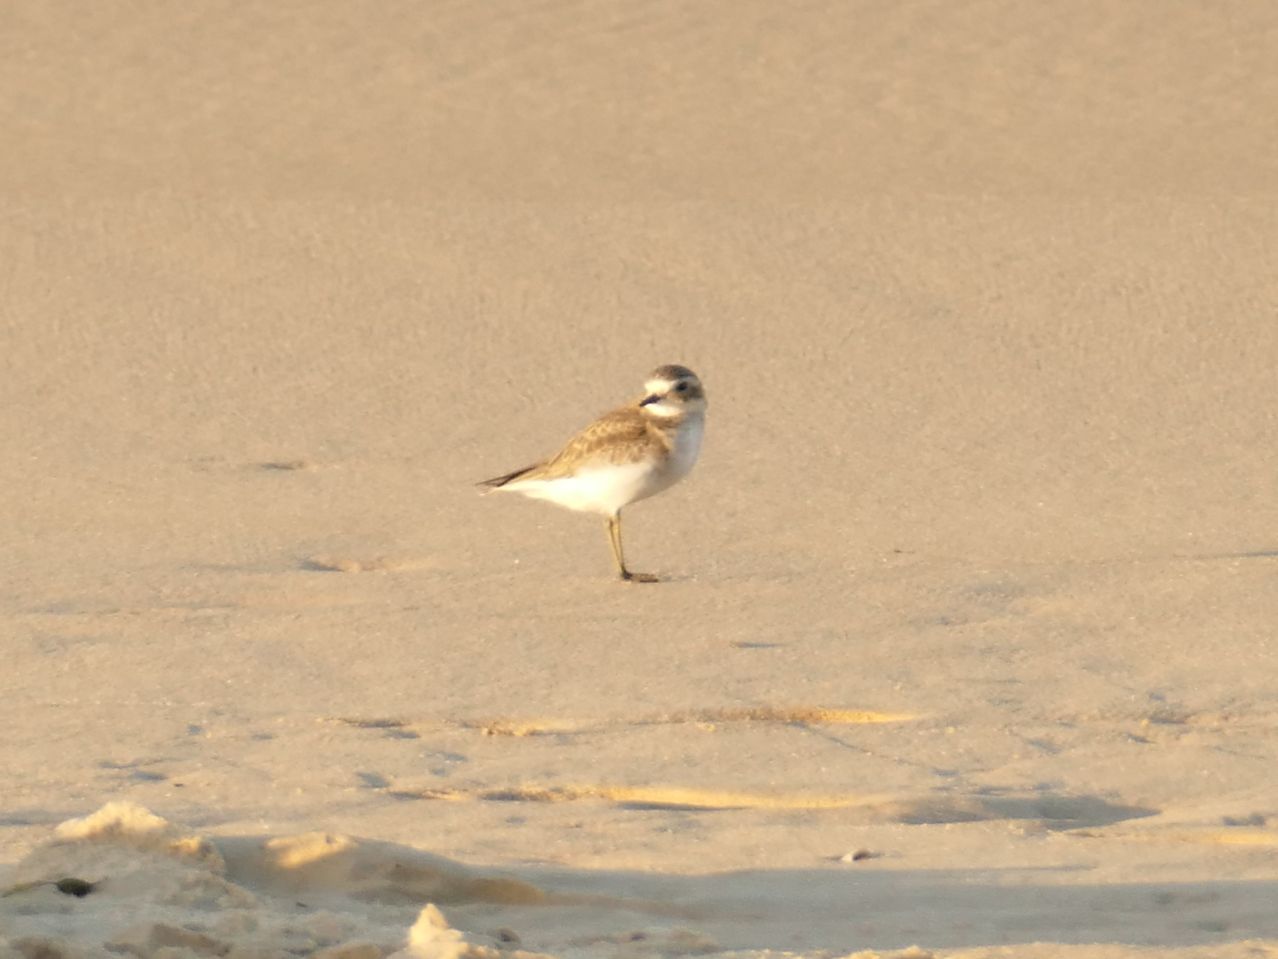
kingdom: Animalia
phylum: Chordata
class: Aves
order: Charadriiformes
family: Charadriidae
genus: Anarhynchus
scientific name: Anarhynchus
